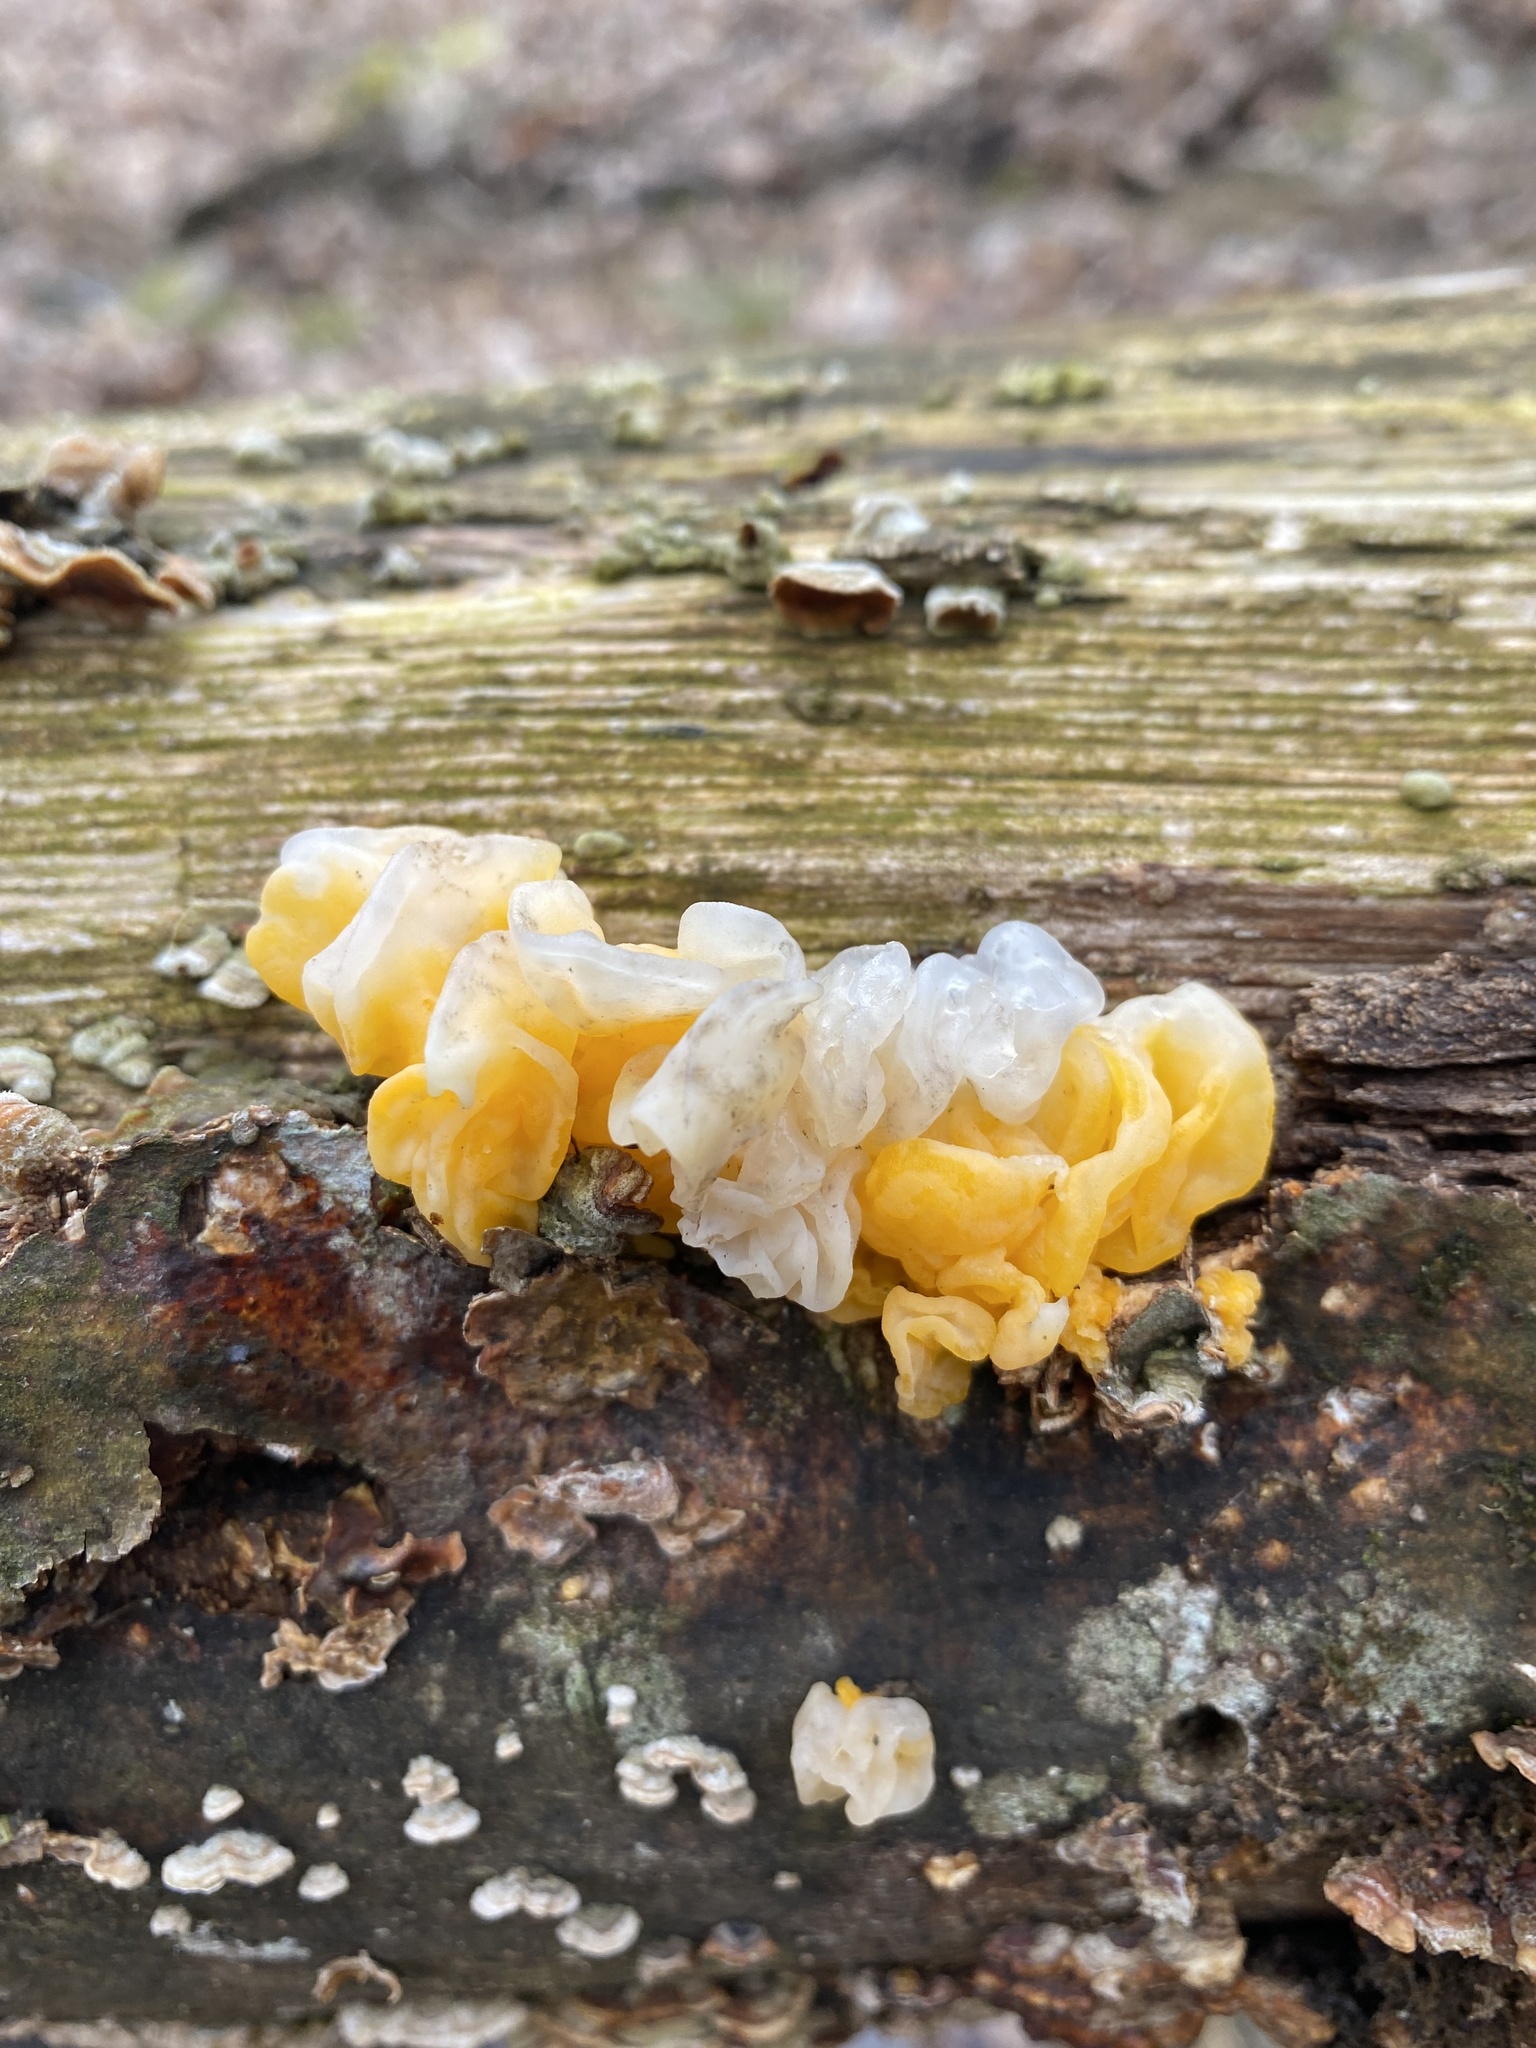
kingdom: Fungi
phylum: Basidiomycota
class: Tremellomycetes
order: Tremellales
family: Naemateliaceae
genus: Naematelia
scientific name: Naematelia aurantia
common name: Golden ear
